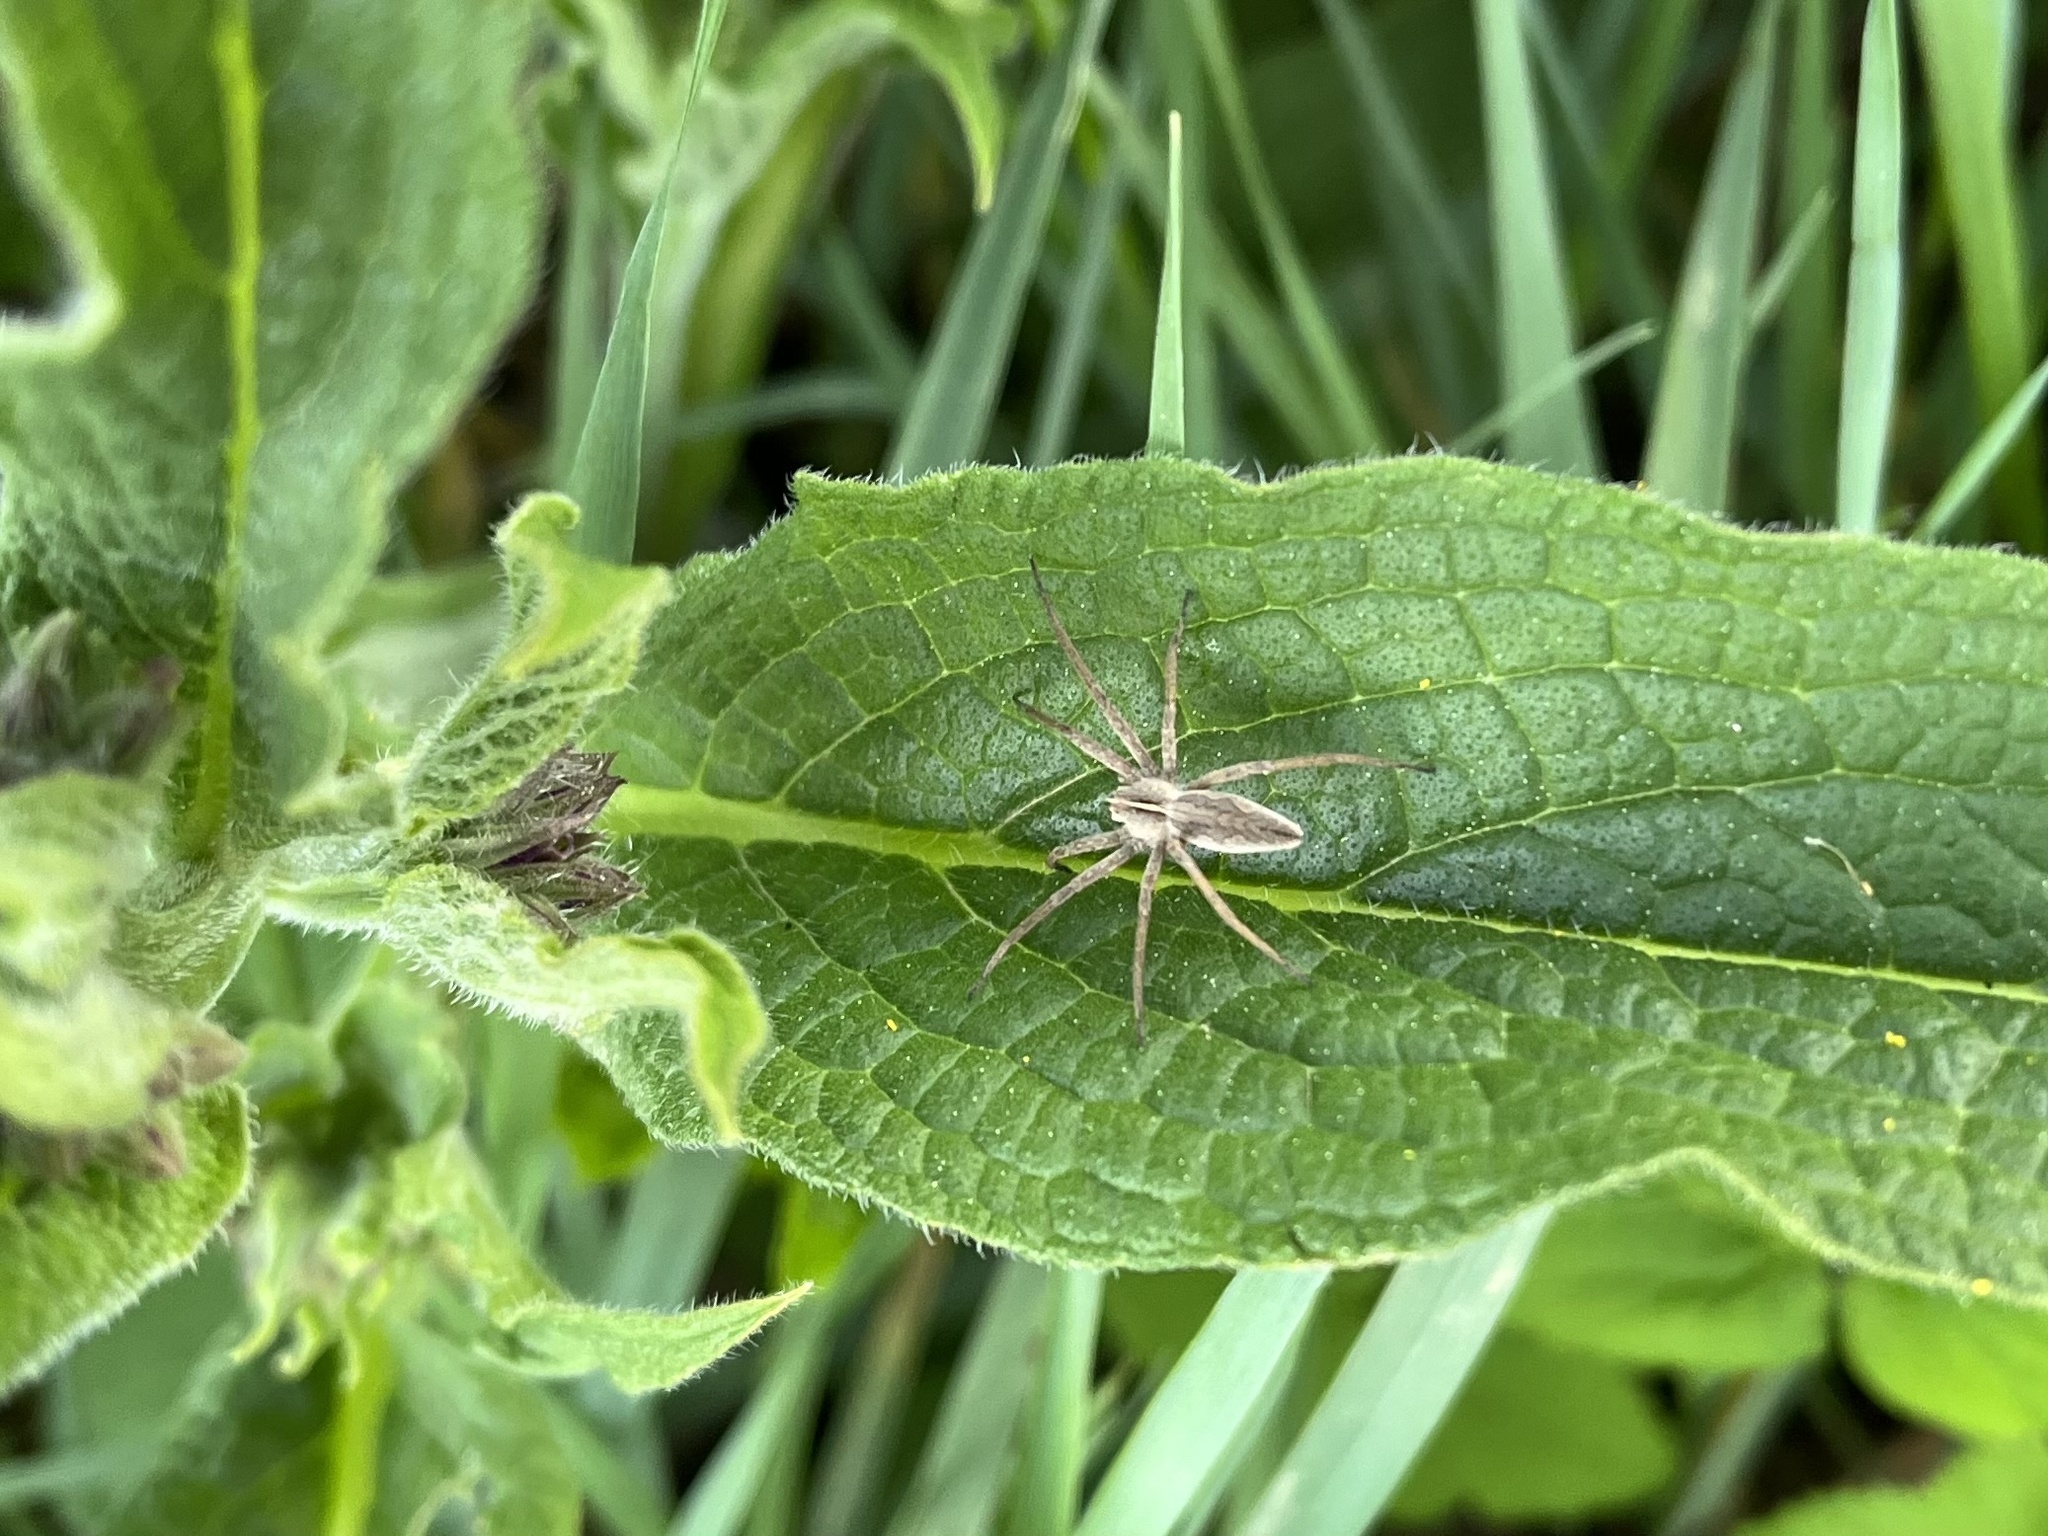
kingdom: Animalia
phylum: Arthropoda
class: Arachnida
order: Araneae
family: Pisauridae
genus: Pisaura
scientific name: Pisaura mirabilis
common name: Tent spider
